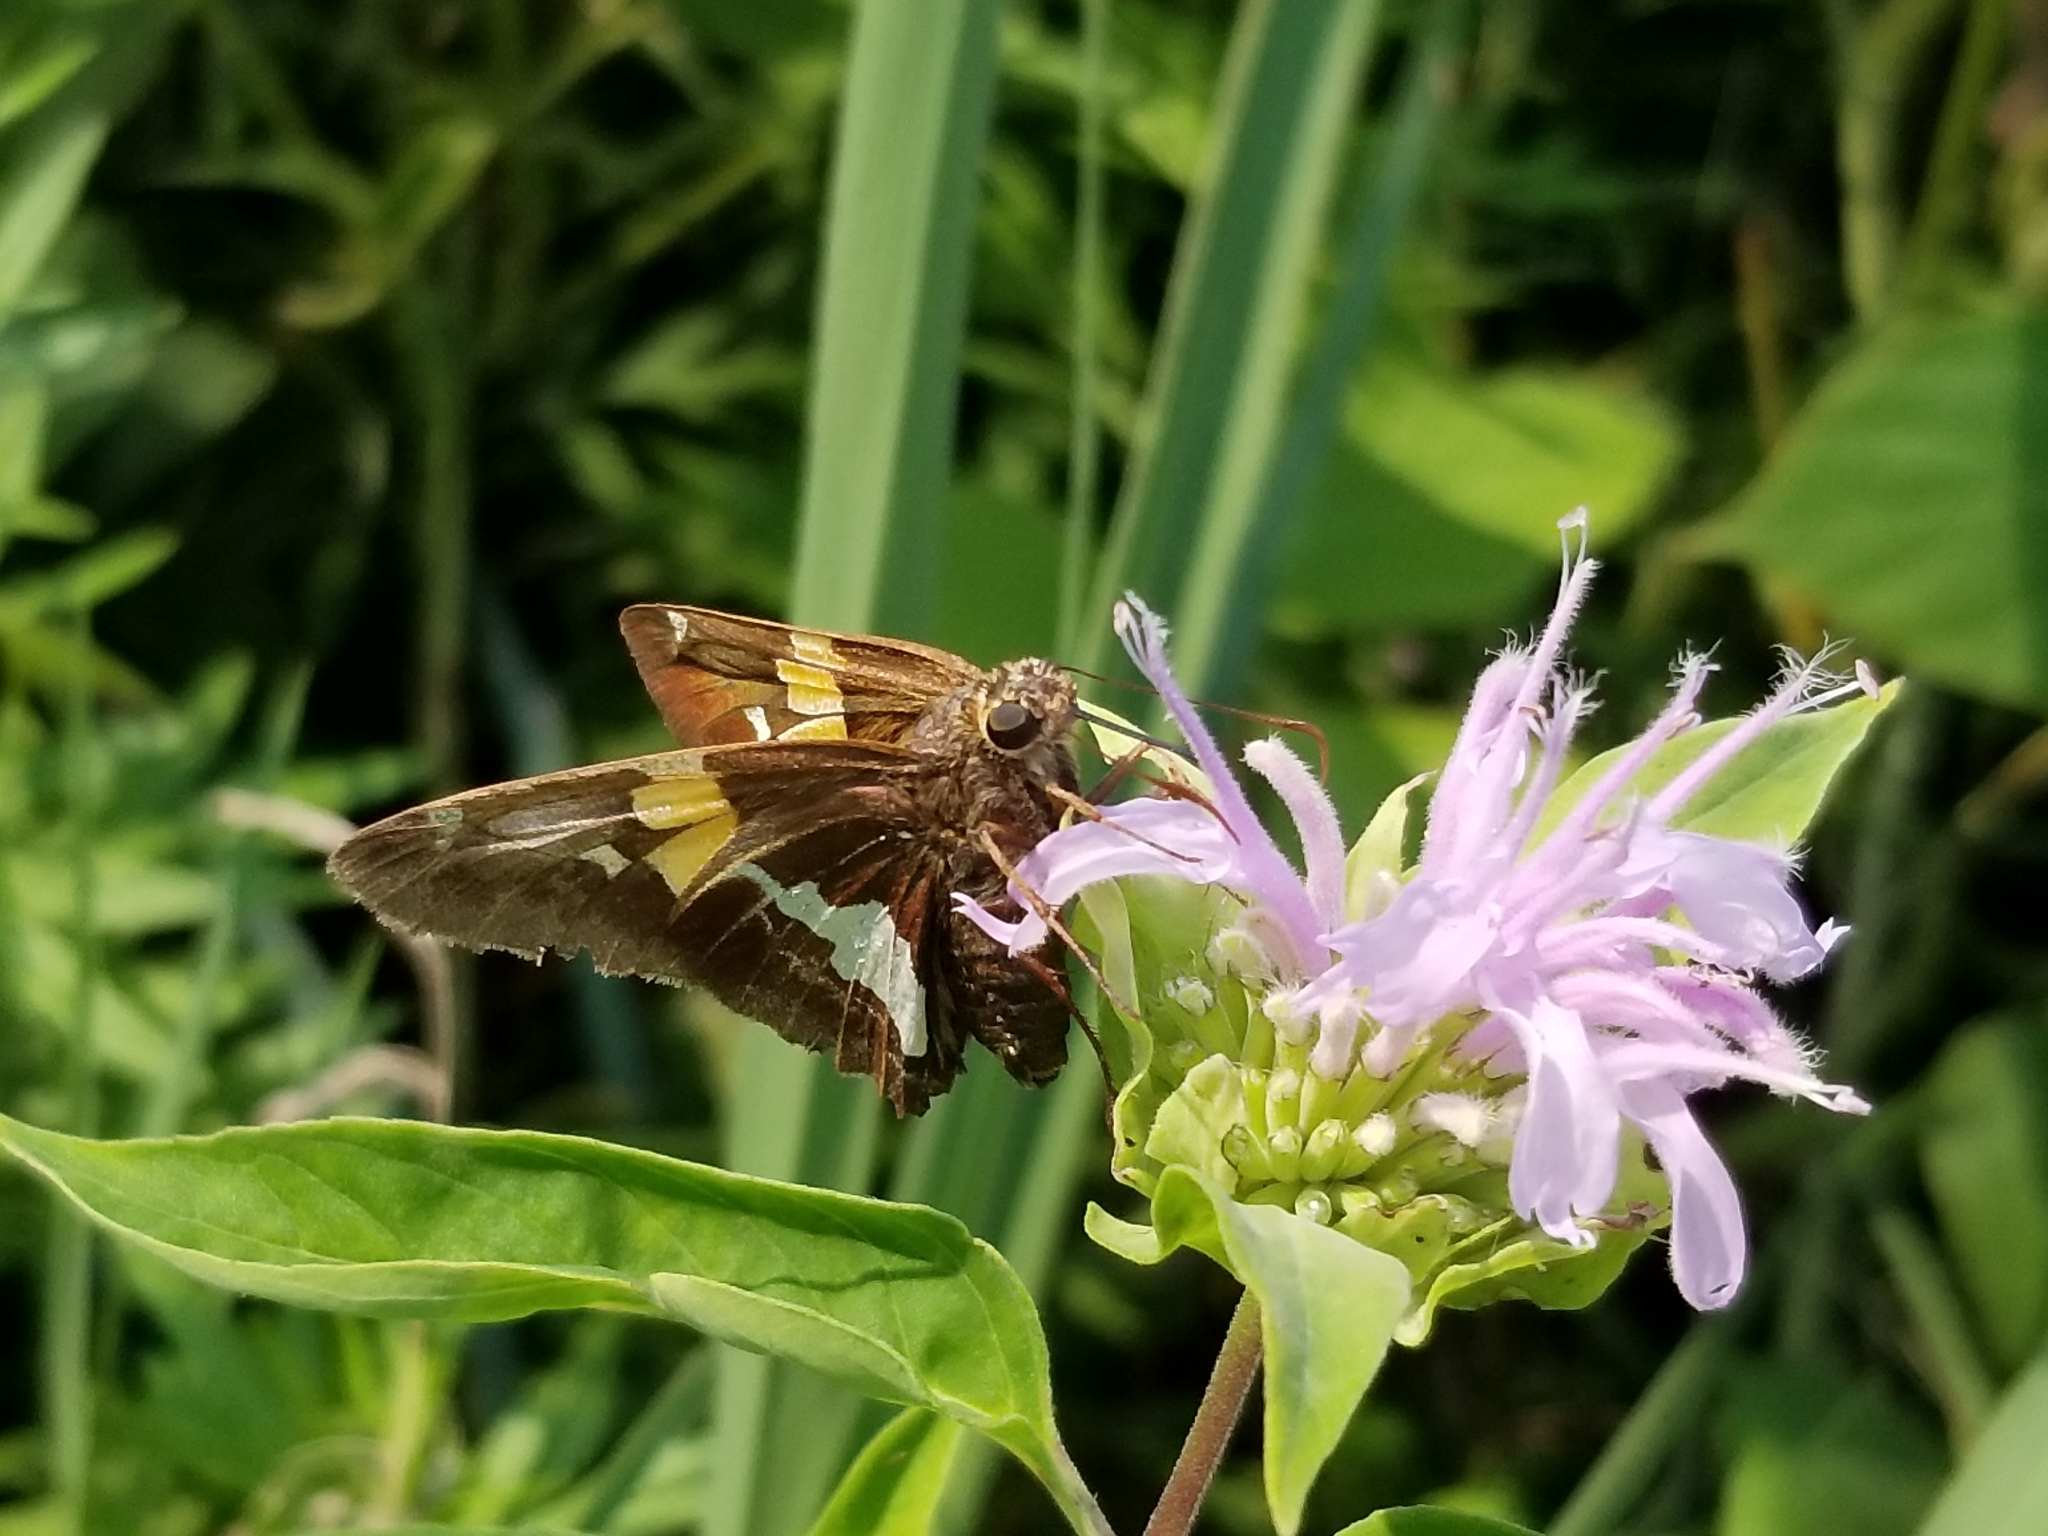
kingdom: Animalia
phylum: Arthropoda
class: Insecta
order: Lepidoptera
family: Hesperiidae
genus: Epargyreus
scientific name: Epargyreus clarus
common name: Silver-spotted skipper
